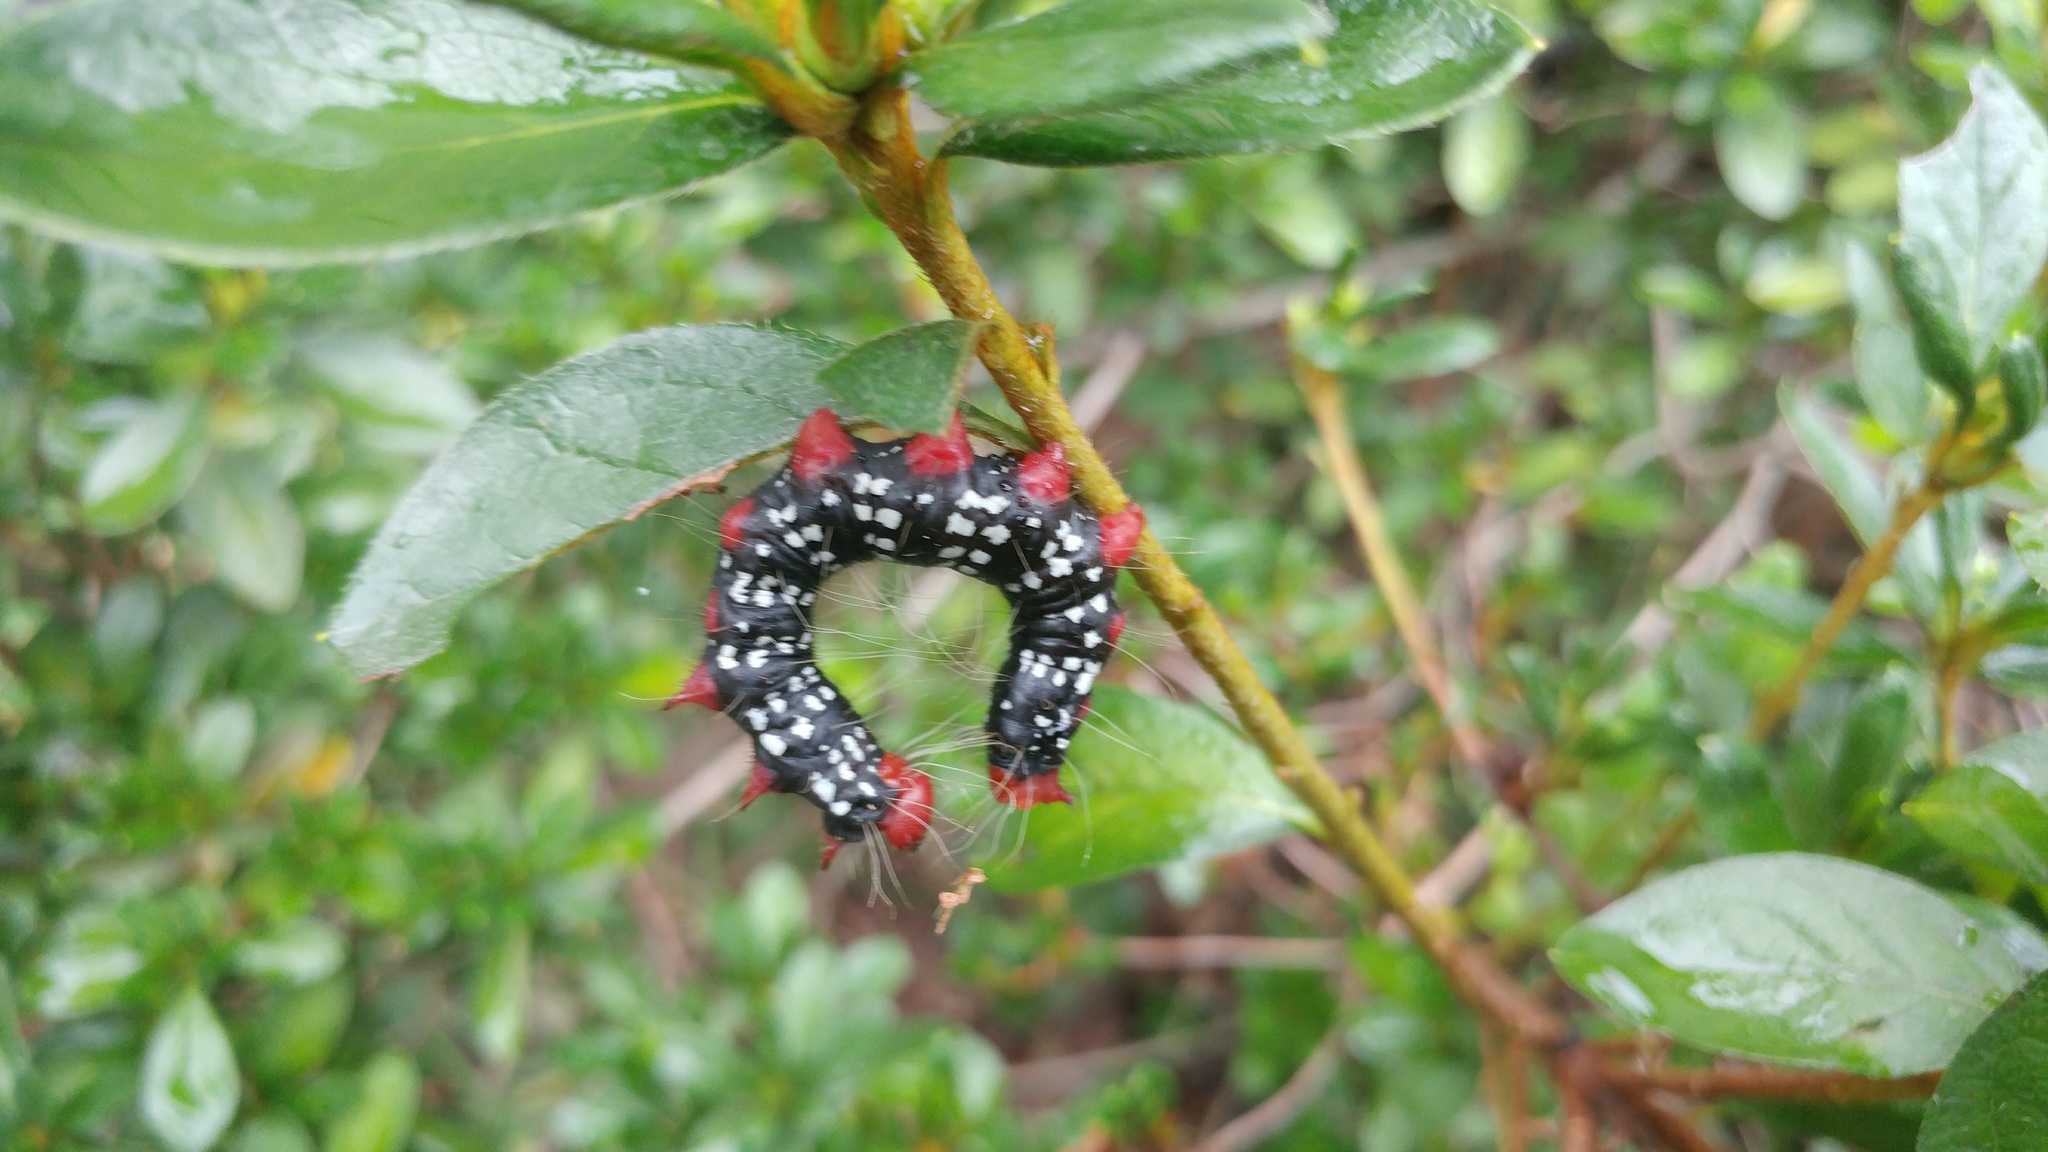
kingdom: Animalia
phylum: Arthropoda
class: Insecta
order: Lepidoptera
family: Notodontidae
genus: Datana
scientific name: Datana major
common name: Azalea caterpillar
